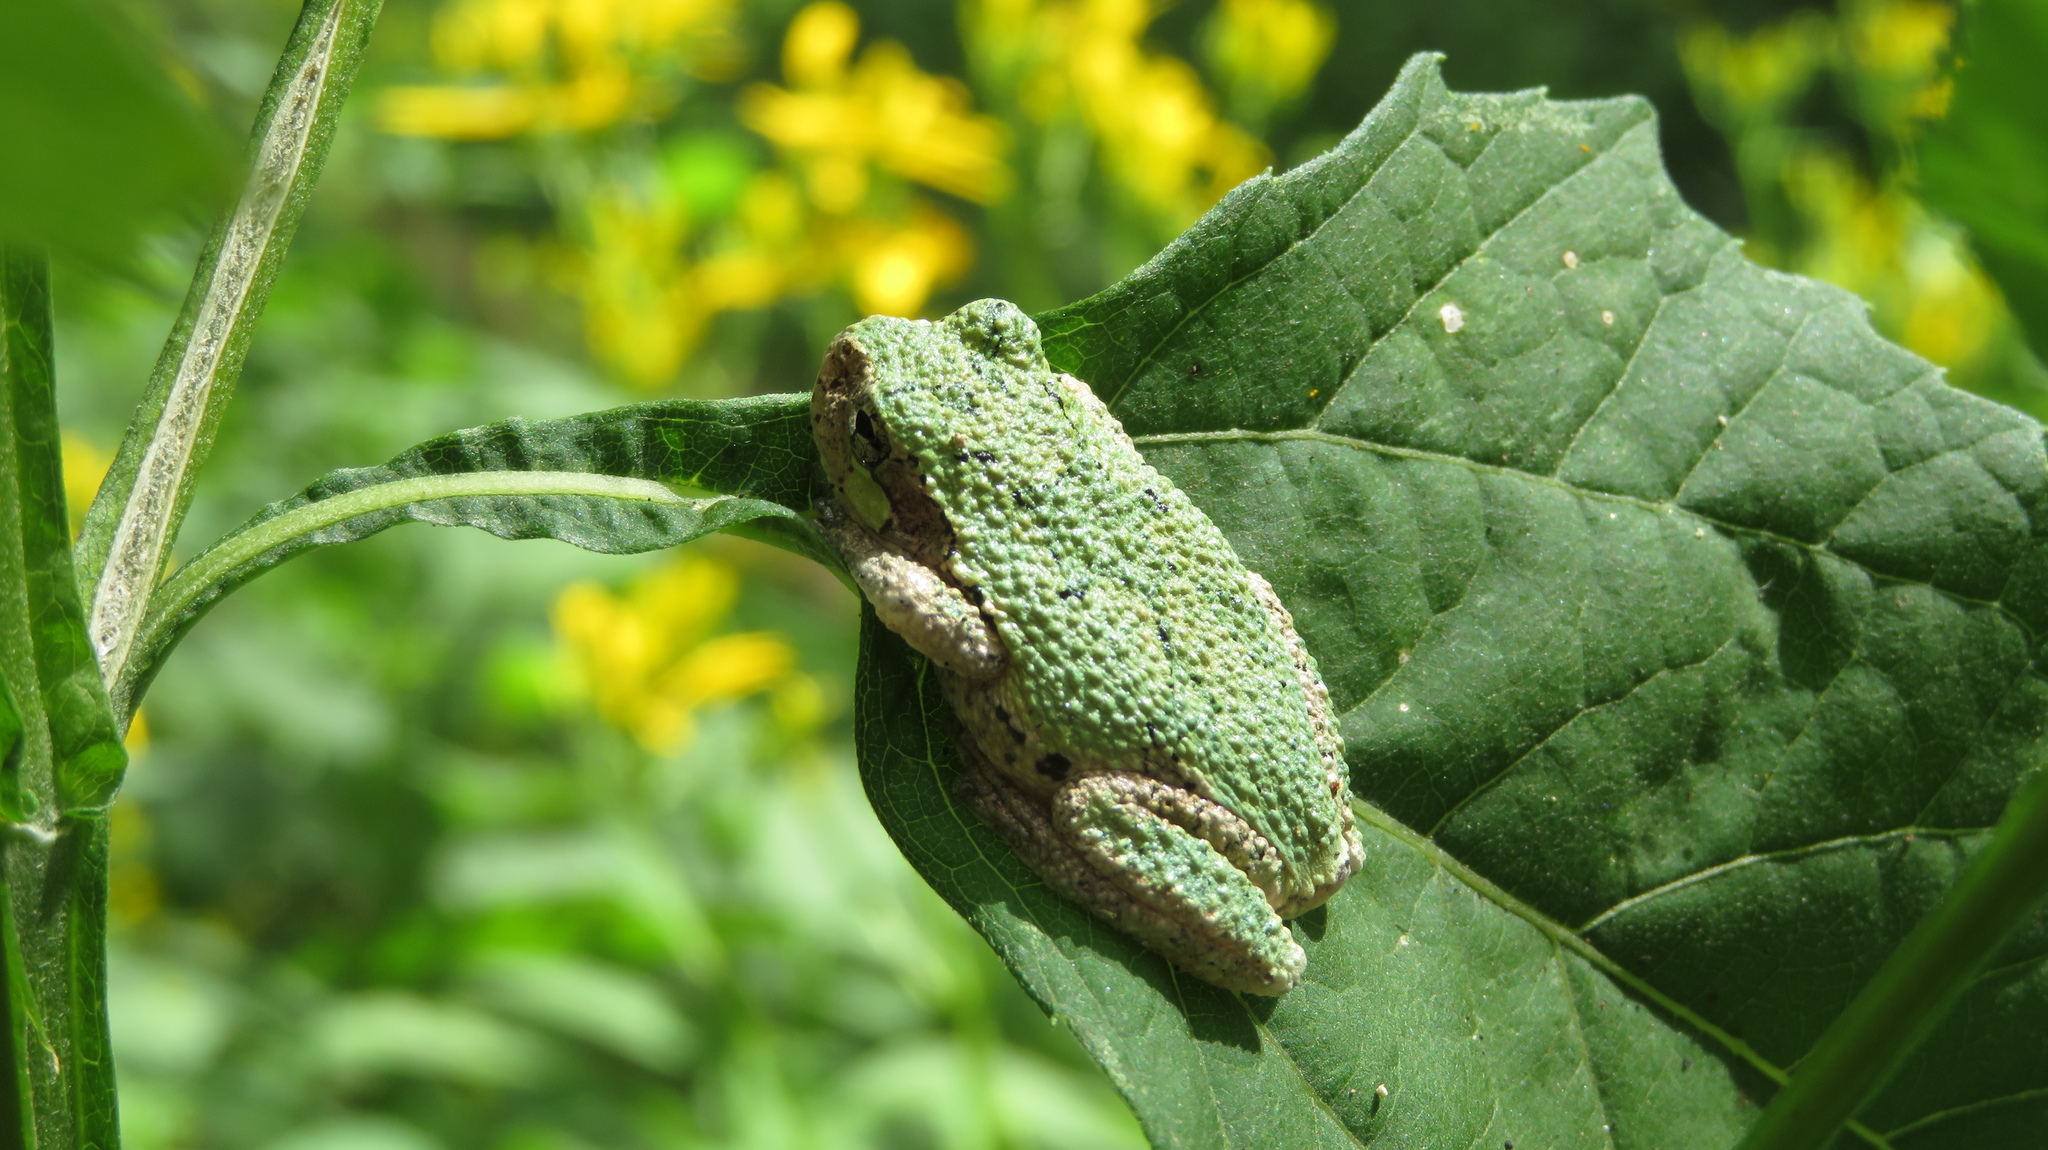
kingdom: Animalia
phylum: Chordata
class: Amphibia
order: Anura
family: Hylidae
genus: Dryophytes
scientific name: Dryophytes chrysoscelis
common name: Cope's gray treefrog
